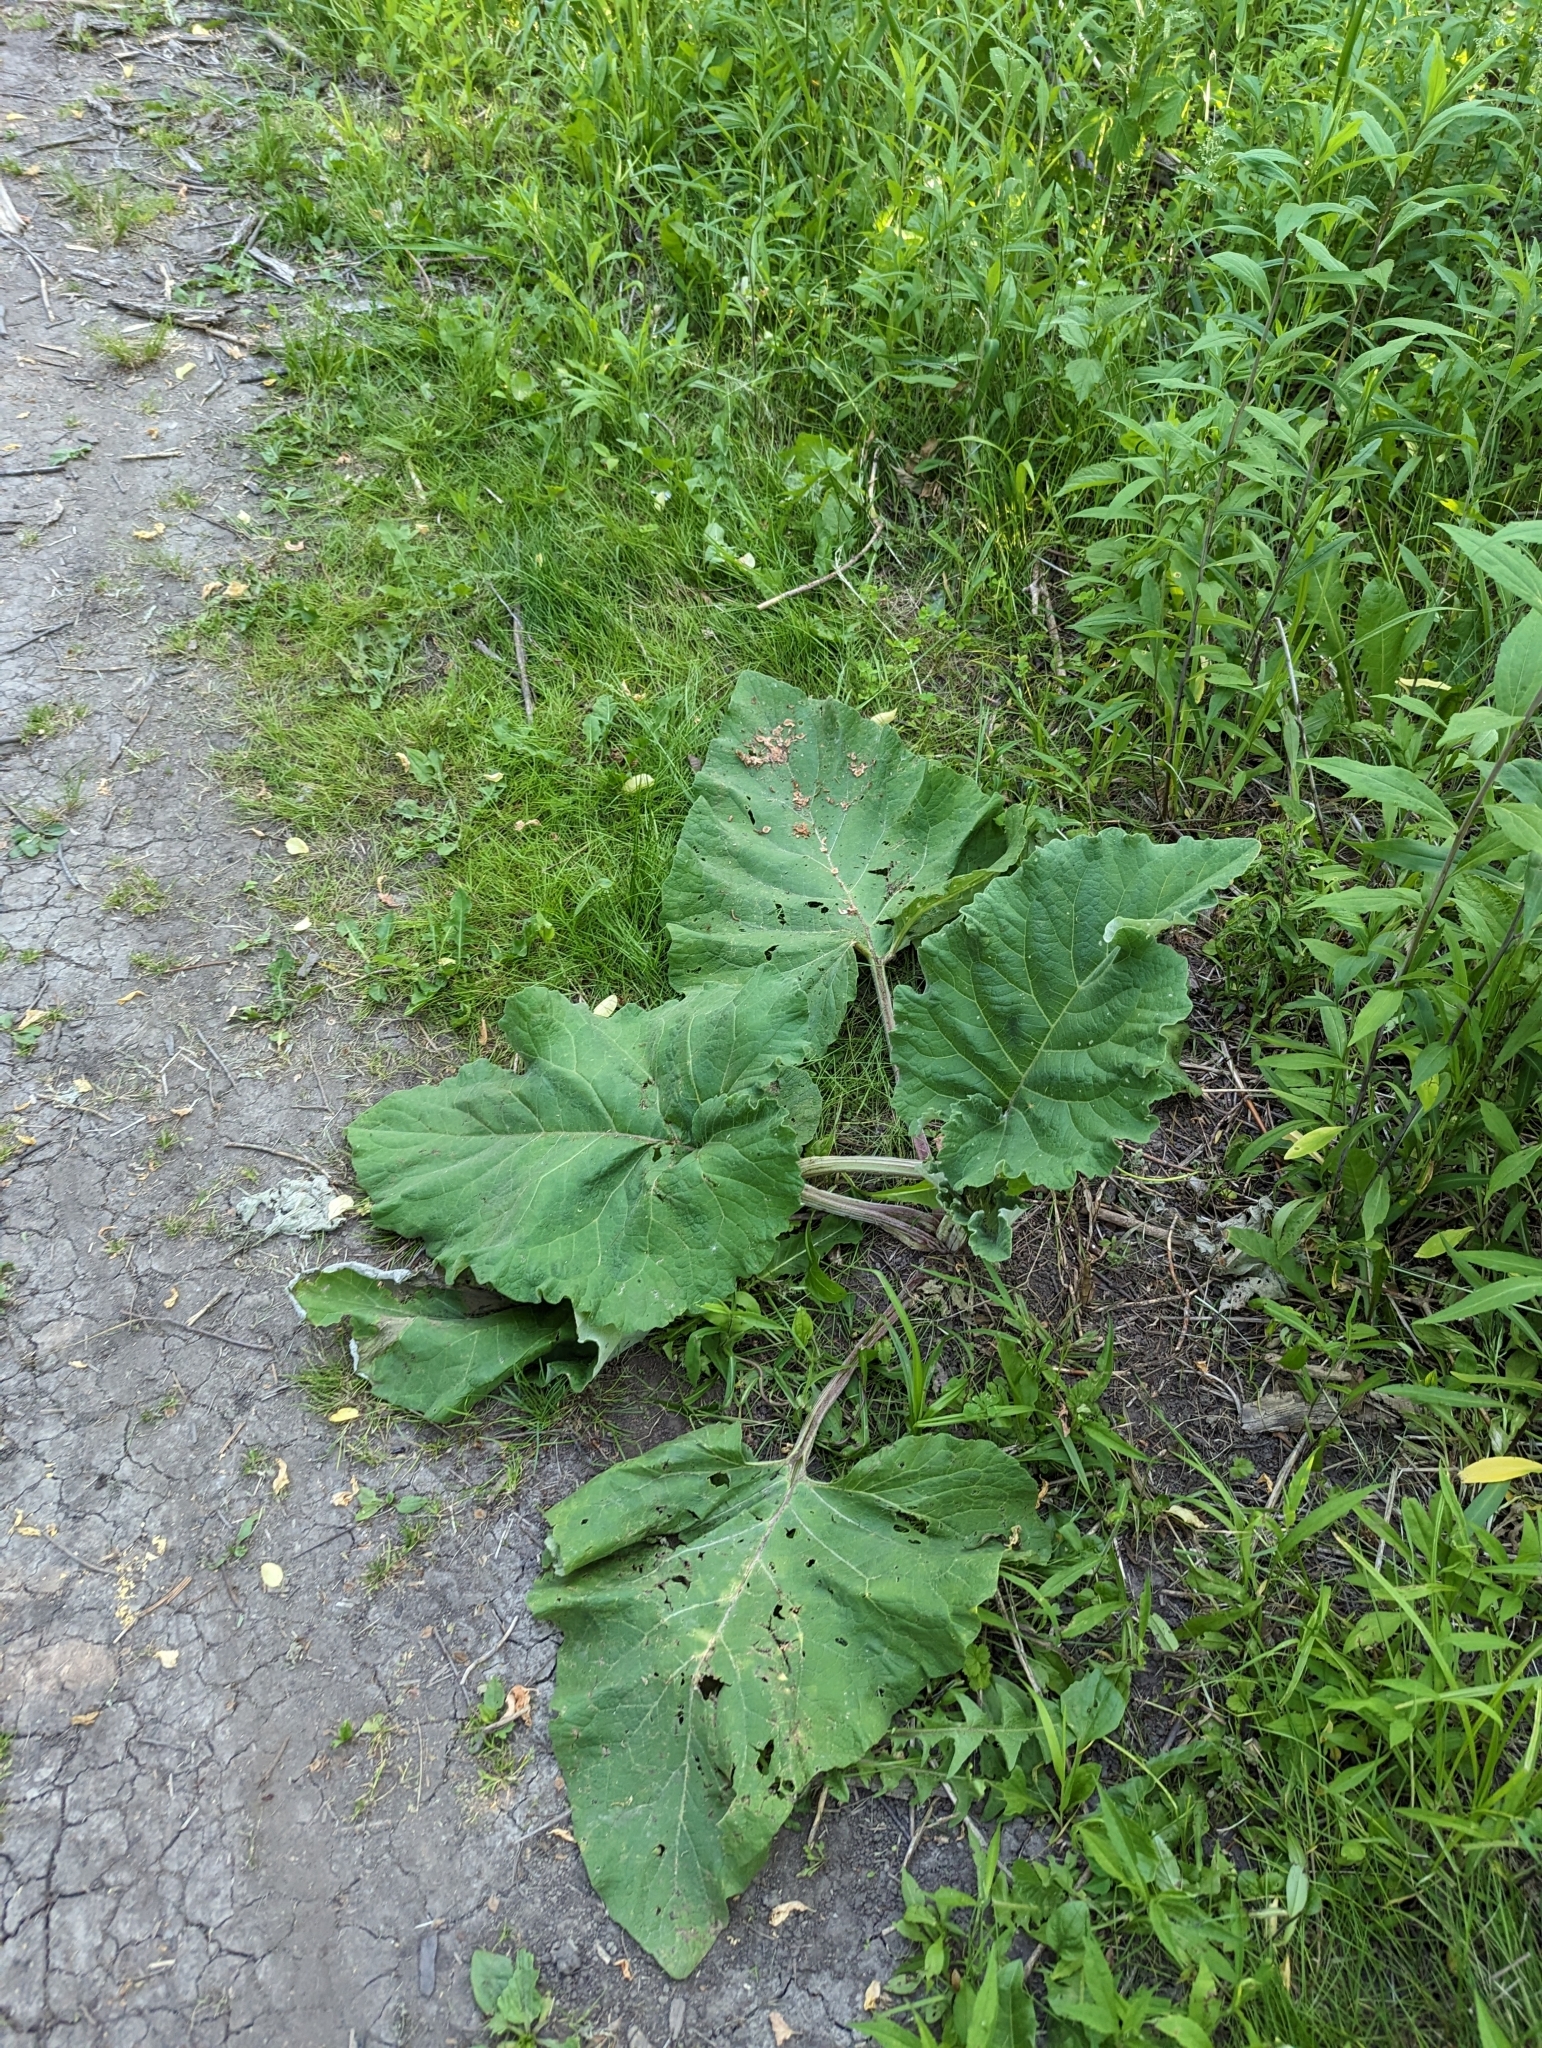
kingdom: Plantae
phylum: Tracheophyta
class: Magnoliopsida
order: Asterales
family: Asteraceae
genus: Arctium
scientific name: Arctium
